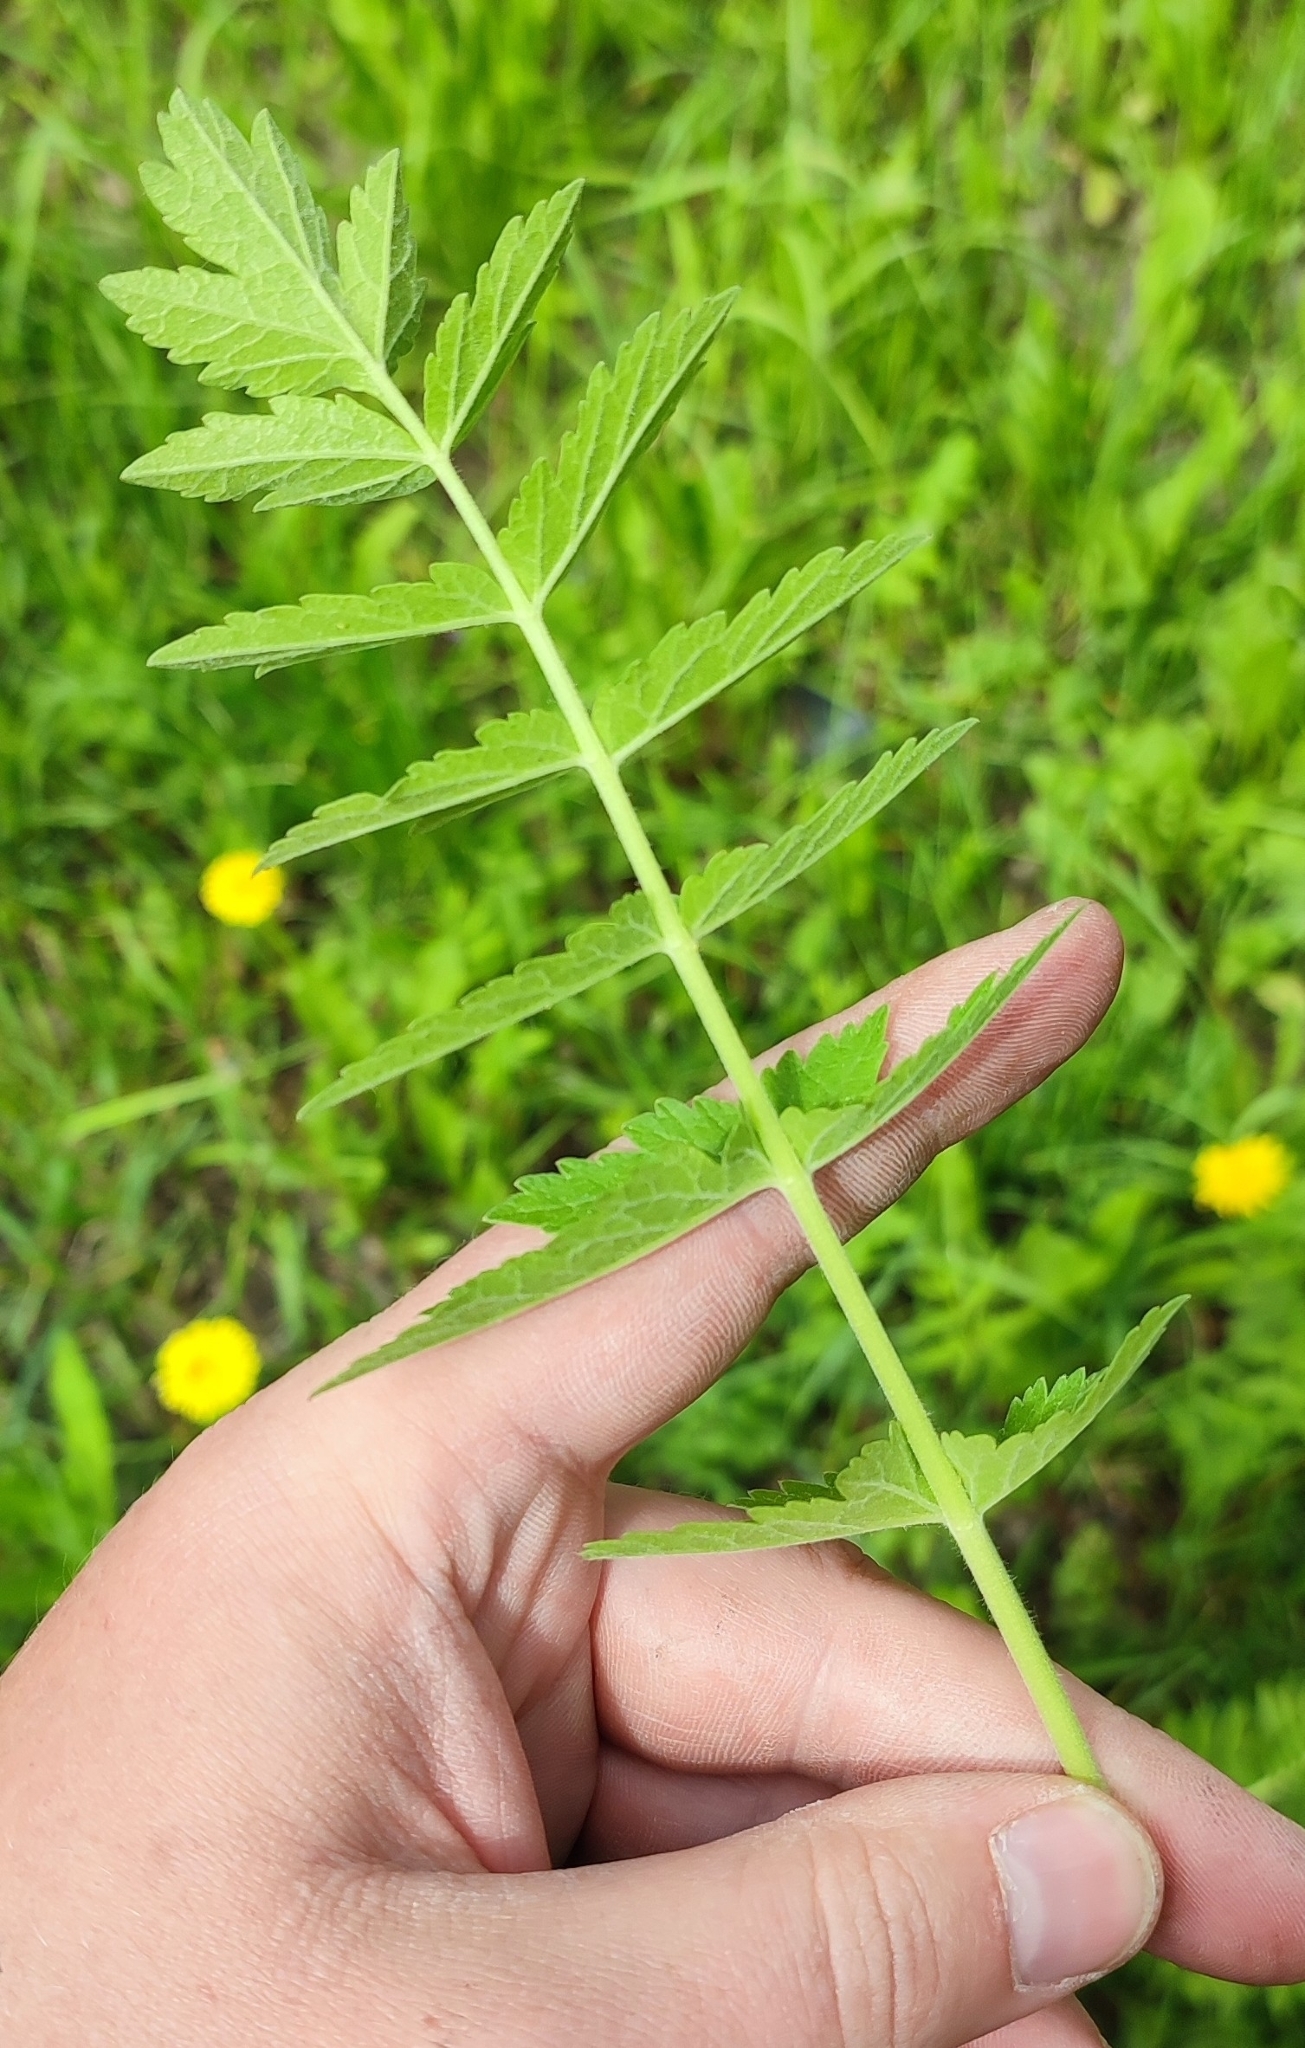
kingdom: Plantae
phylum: Tracheophyta
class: Magnoliopsida
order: Apiales
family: Apiaceae
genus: Pastinaca
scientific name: Pastinaca sativa
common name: Wild parsnip
